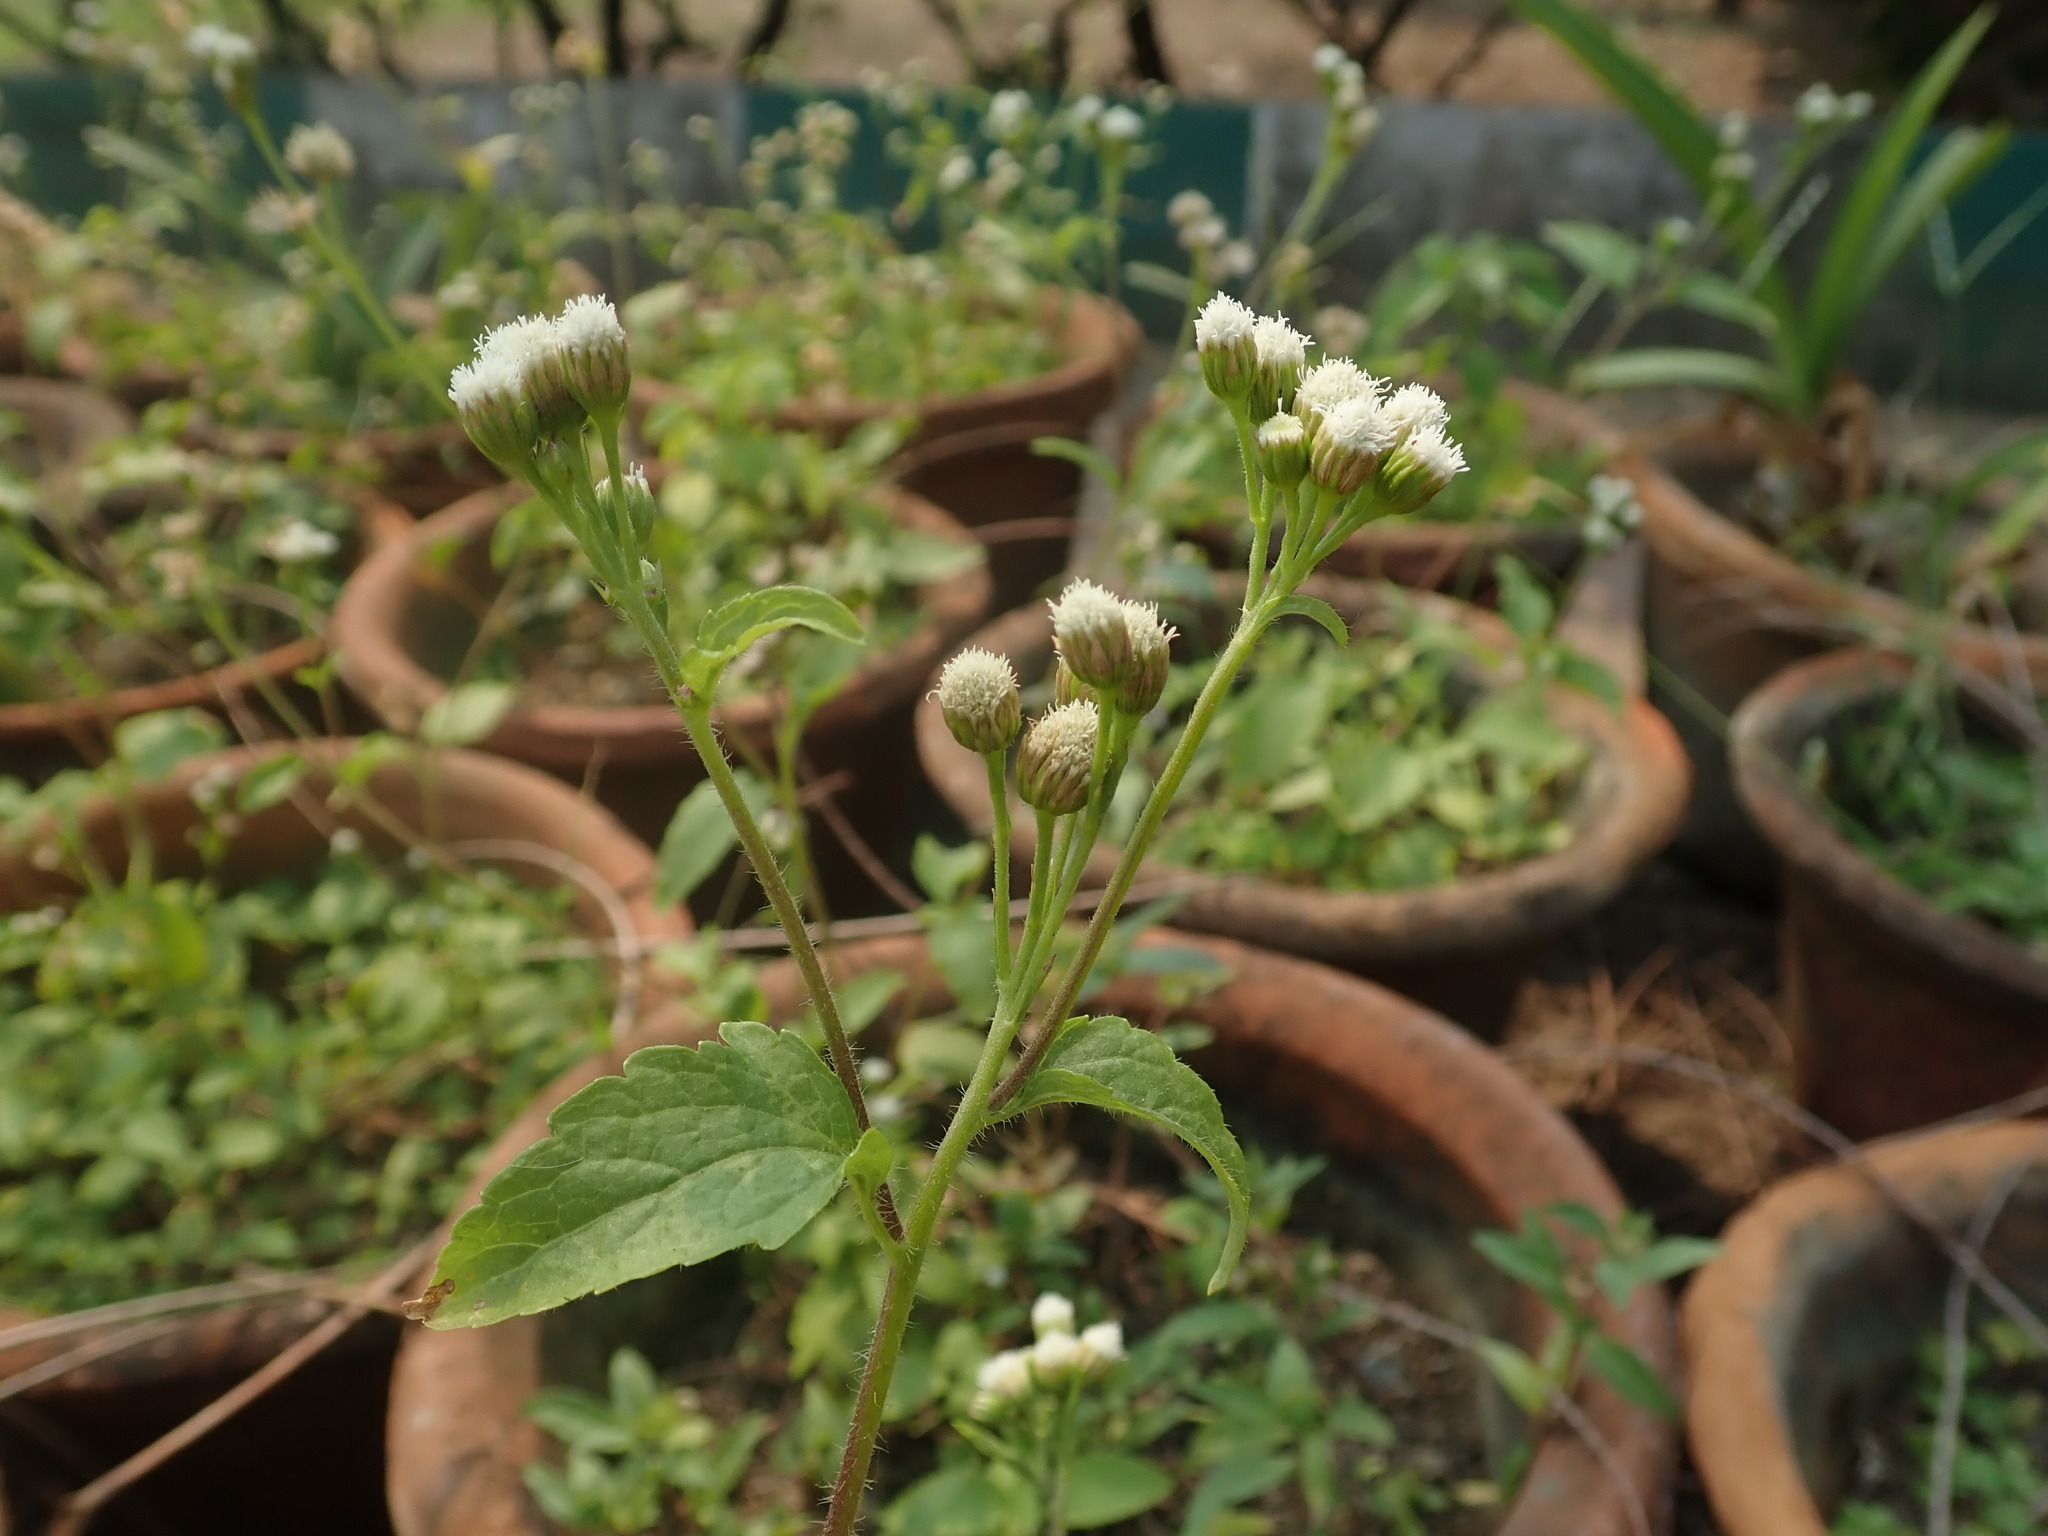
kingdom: Plantae
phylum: Tracheophyta
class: Magnoliopsida
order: Asterales
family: Asteraceae
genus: Ageratum
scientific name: Ageratum conyzoides
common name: Tropical whiteweed
